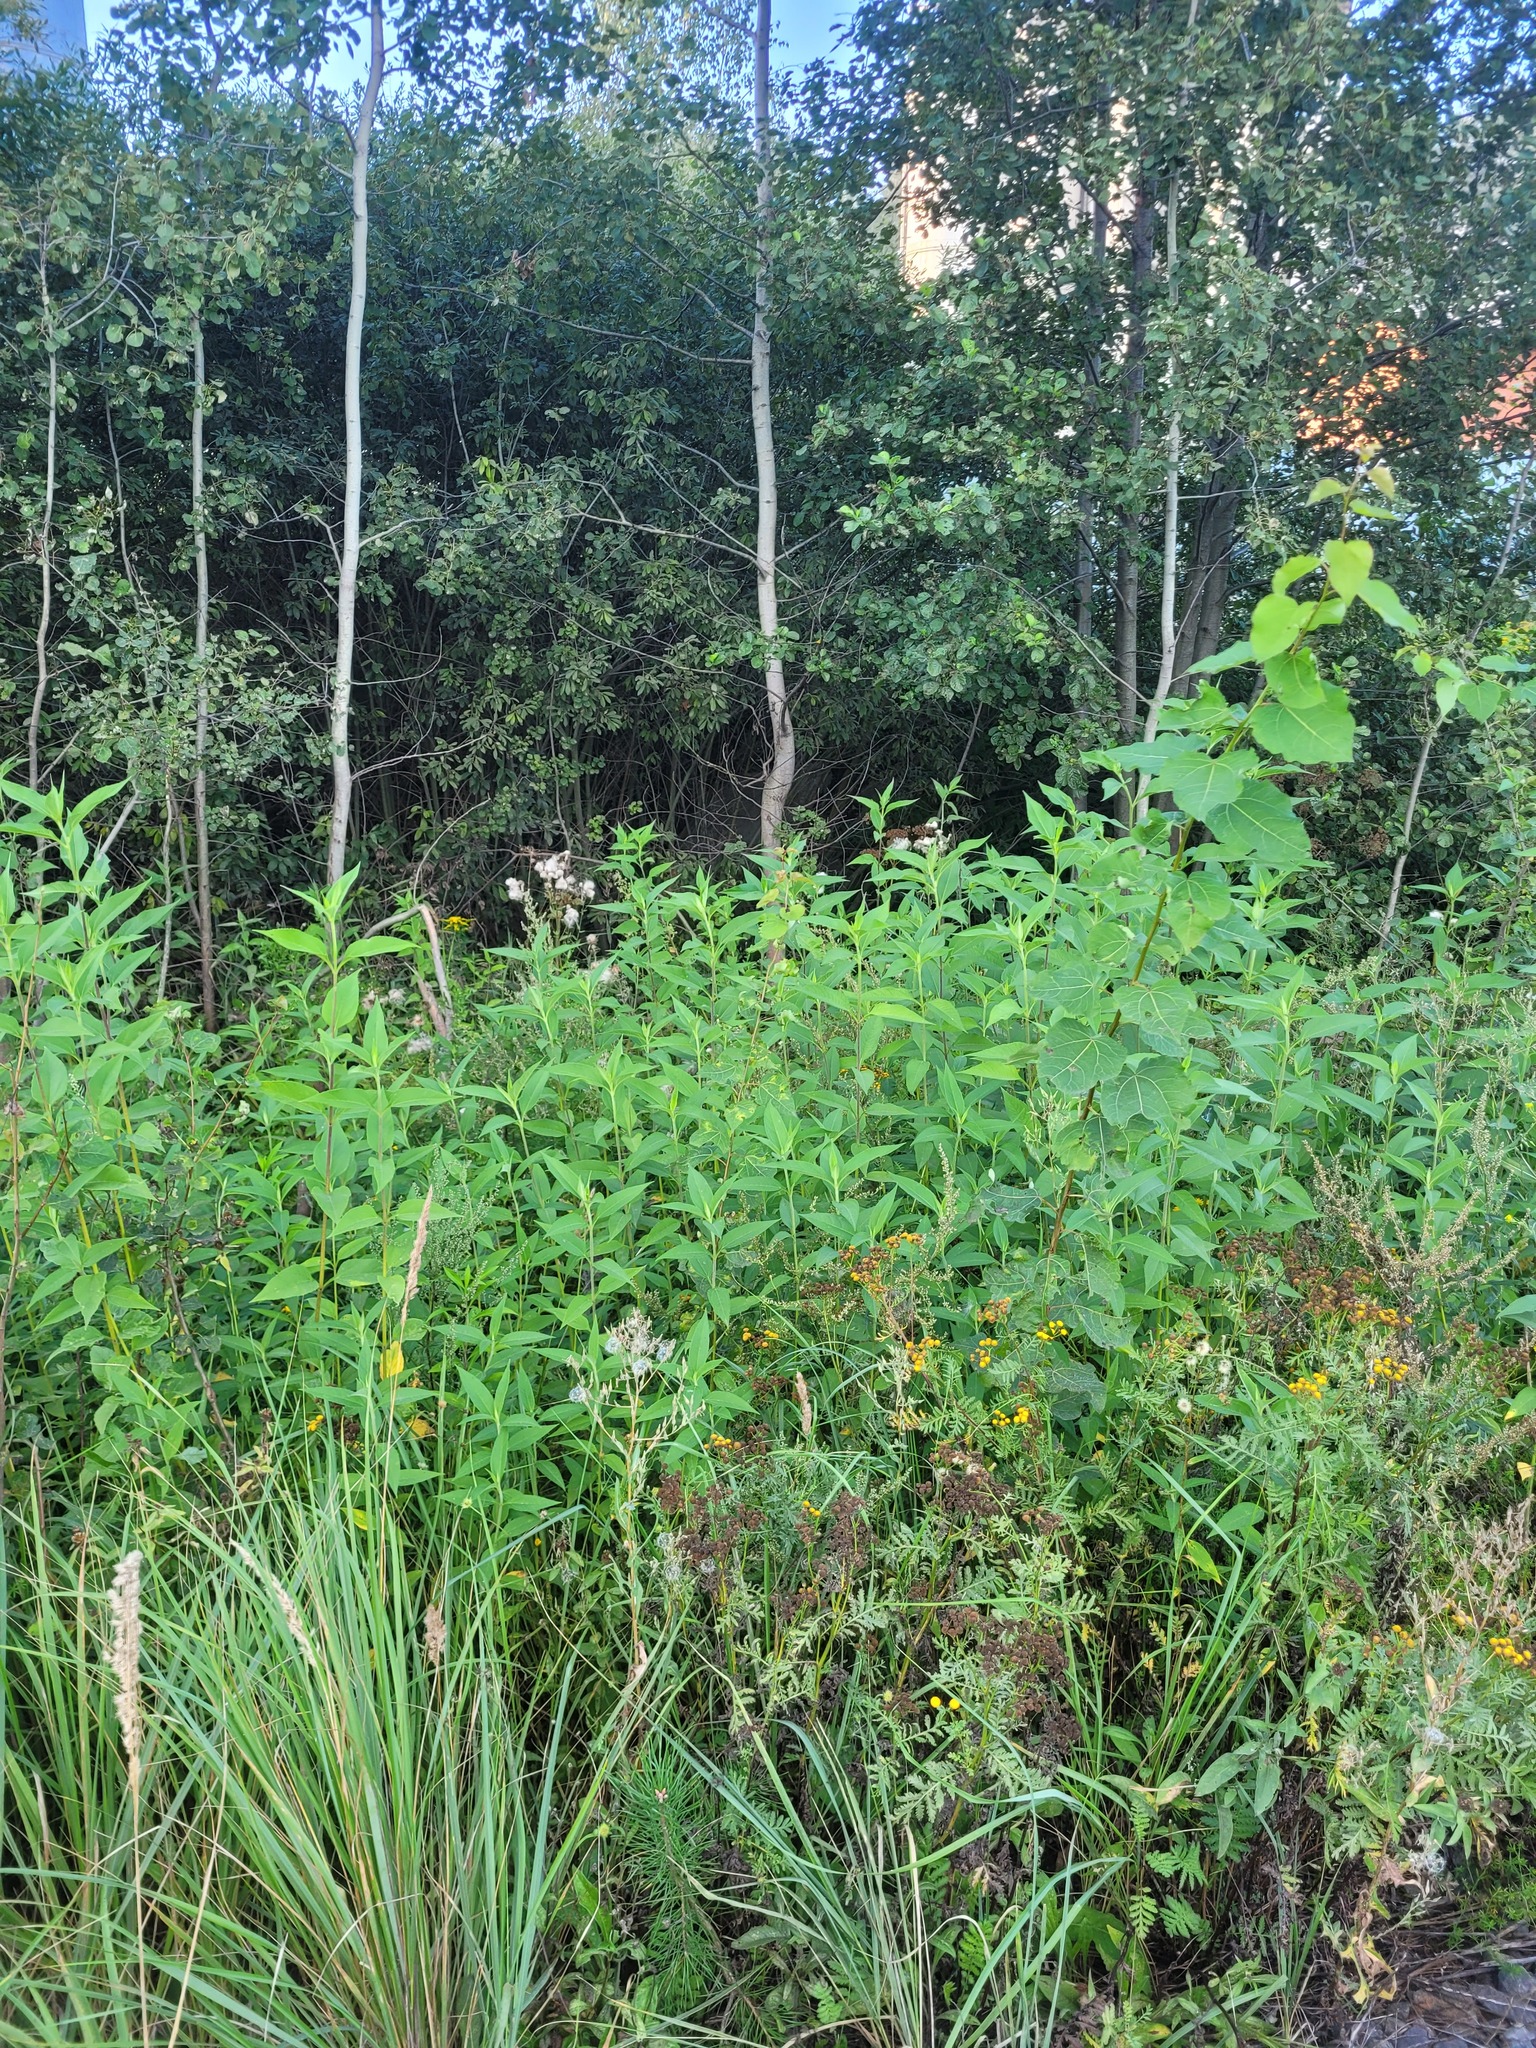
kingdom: Plantae
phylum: Tracheophyta
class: Magnoliopsida
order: Asterales
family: Asteraceae
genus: Helianthus
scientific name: Helianthus tuberosus
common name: Jerusalem artichoke
